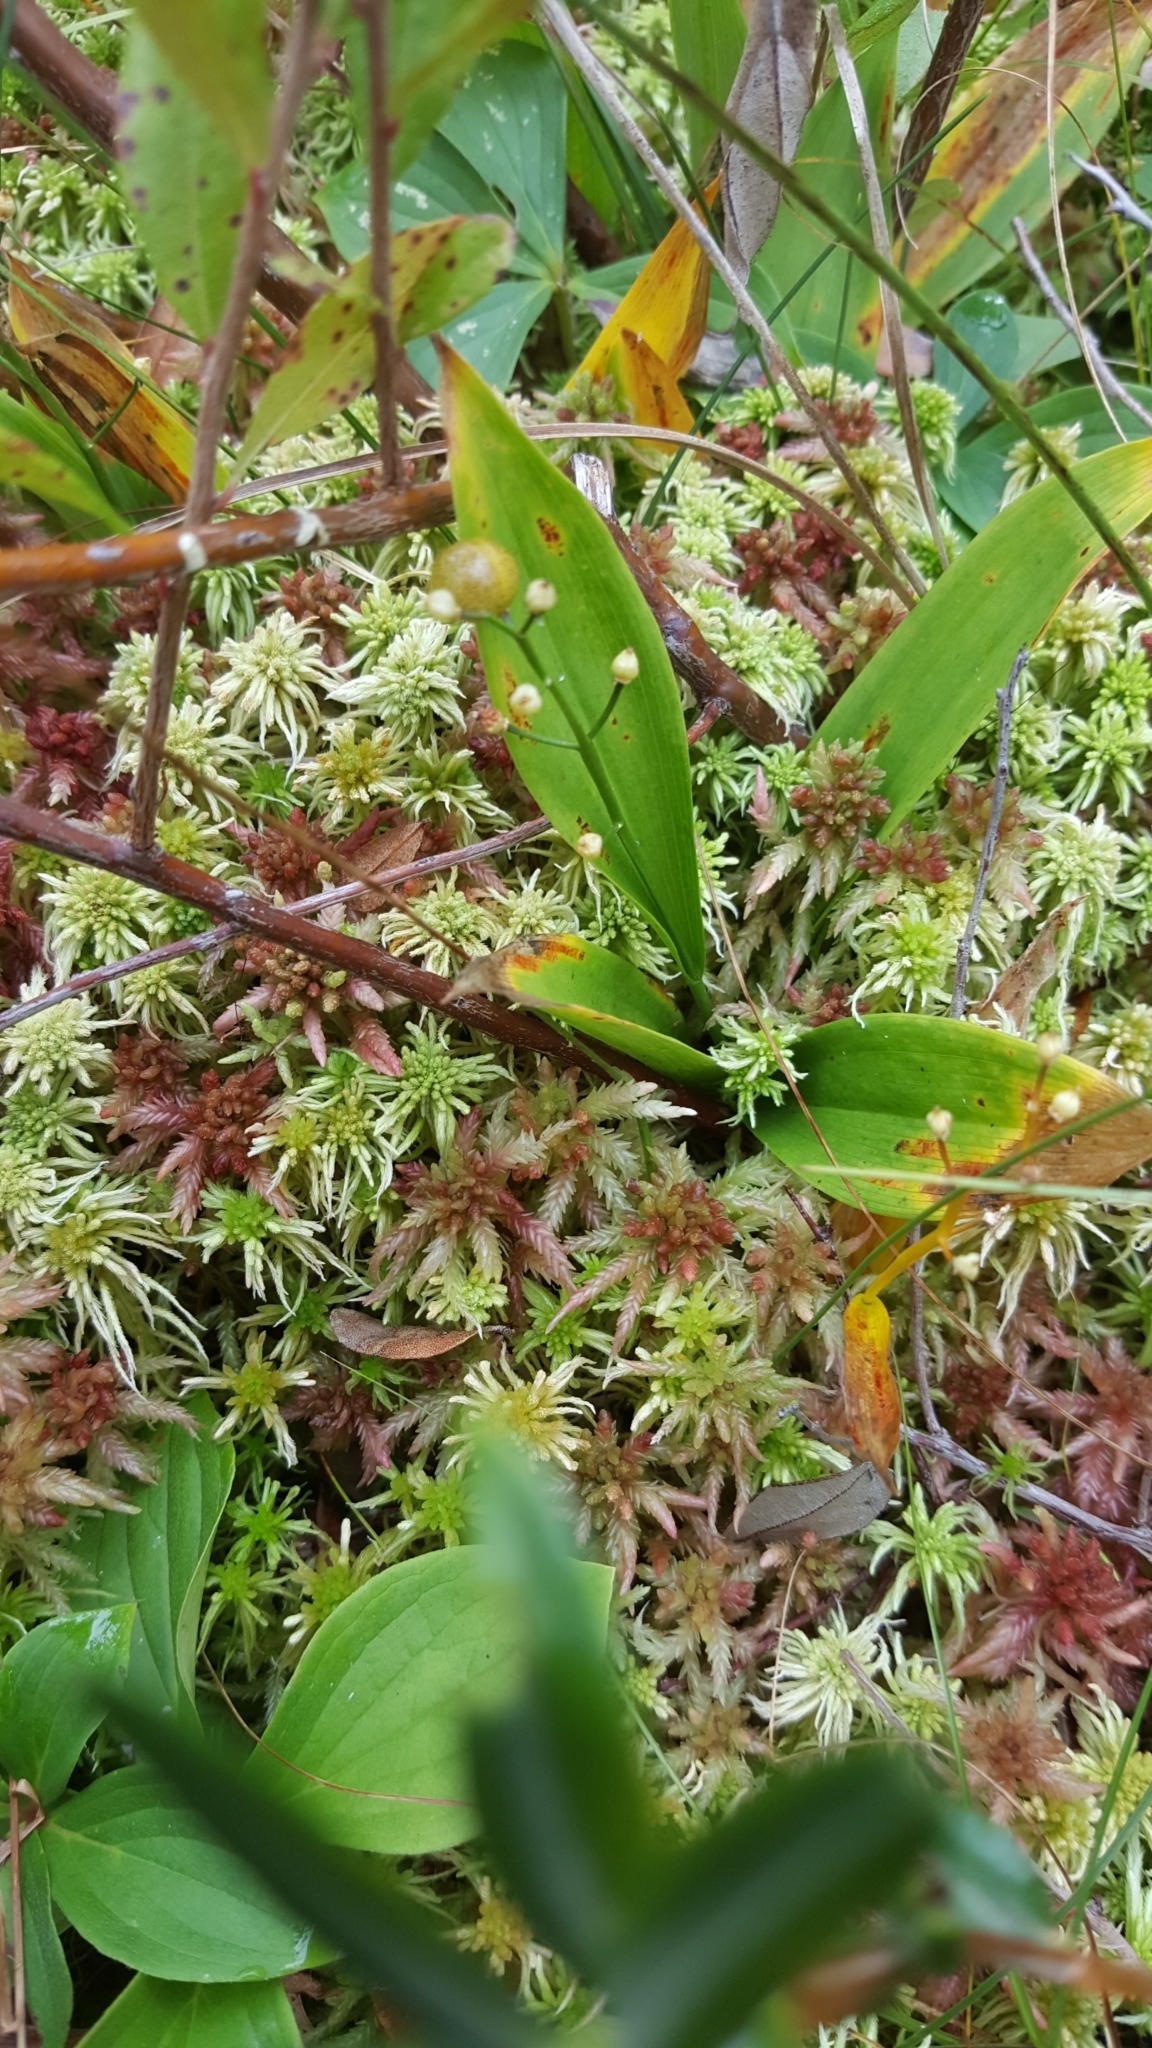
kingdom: Plantae
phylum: Tracheophyta
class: Liliopsida
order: Asparagales
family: Asparagaceae
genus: Maianthemum
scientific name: Maianthemum trifolium
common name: Swamp false solomon's seal
